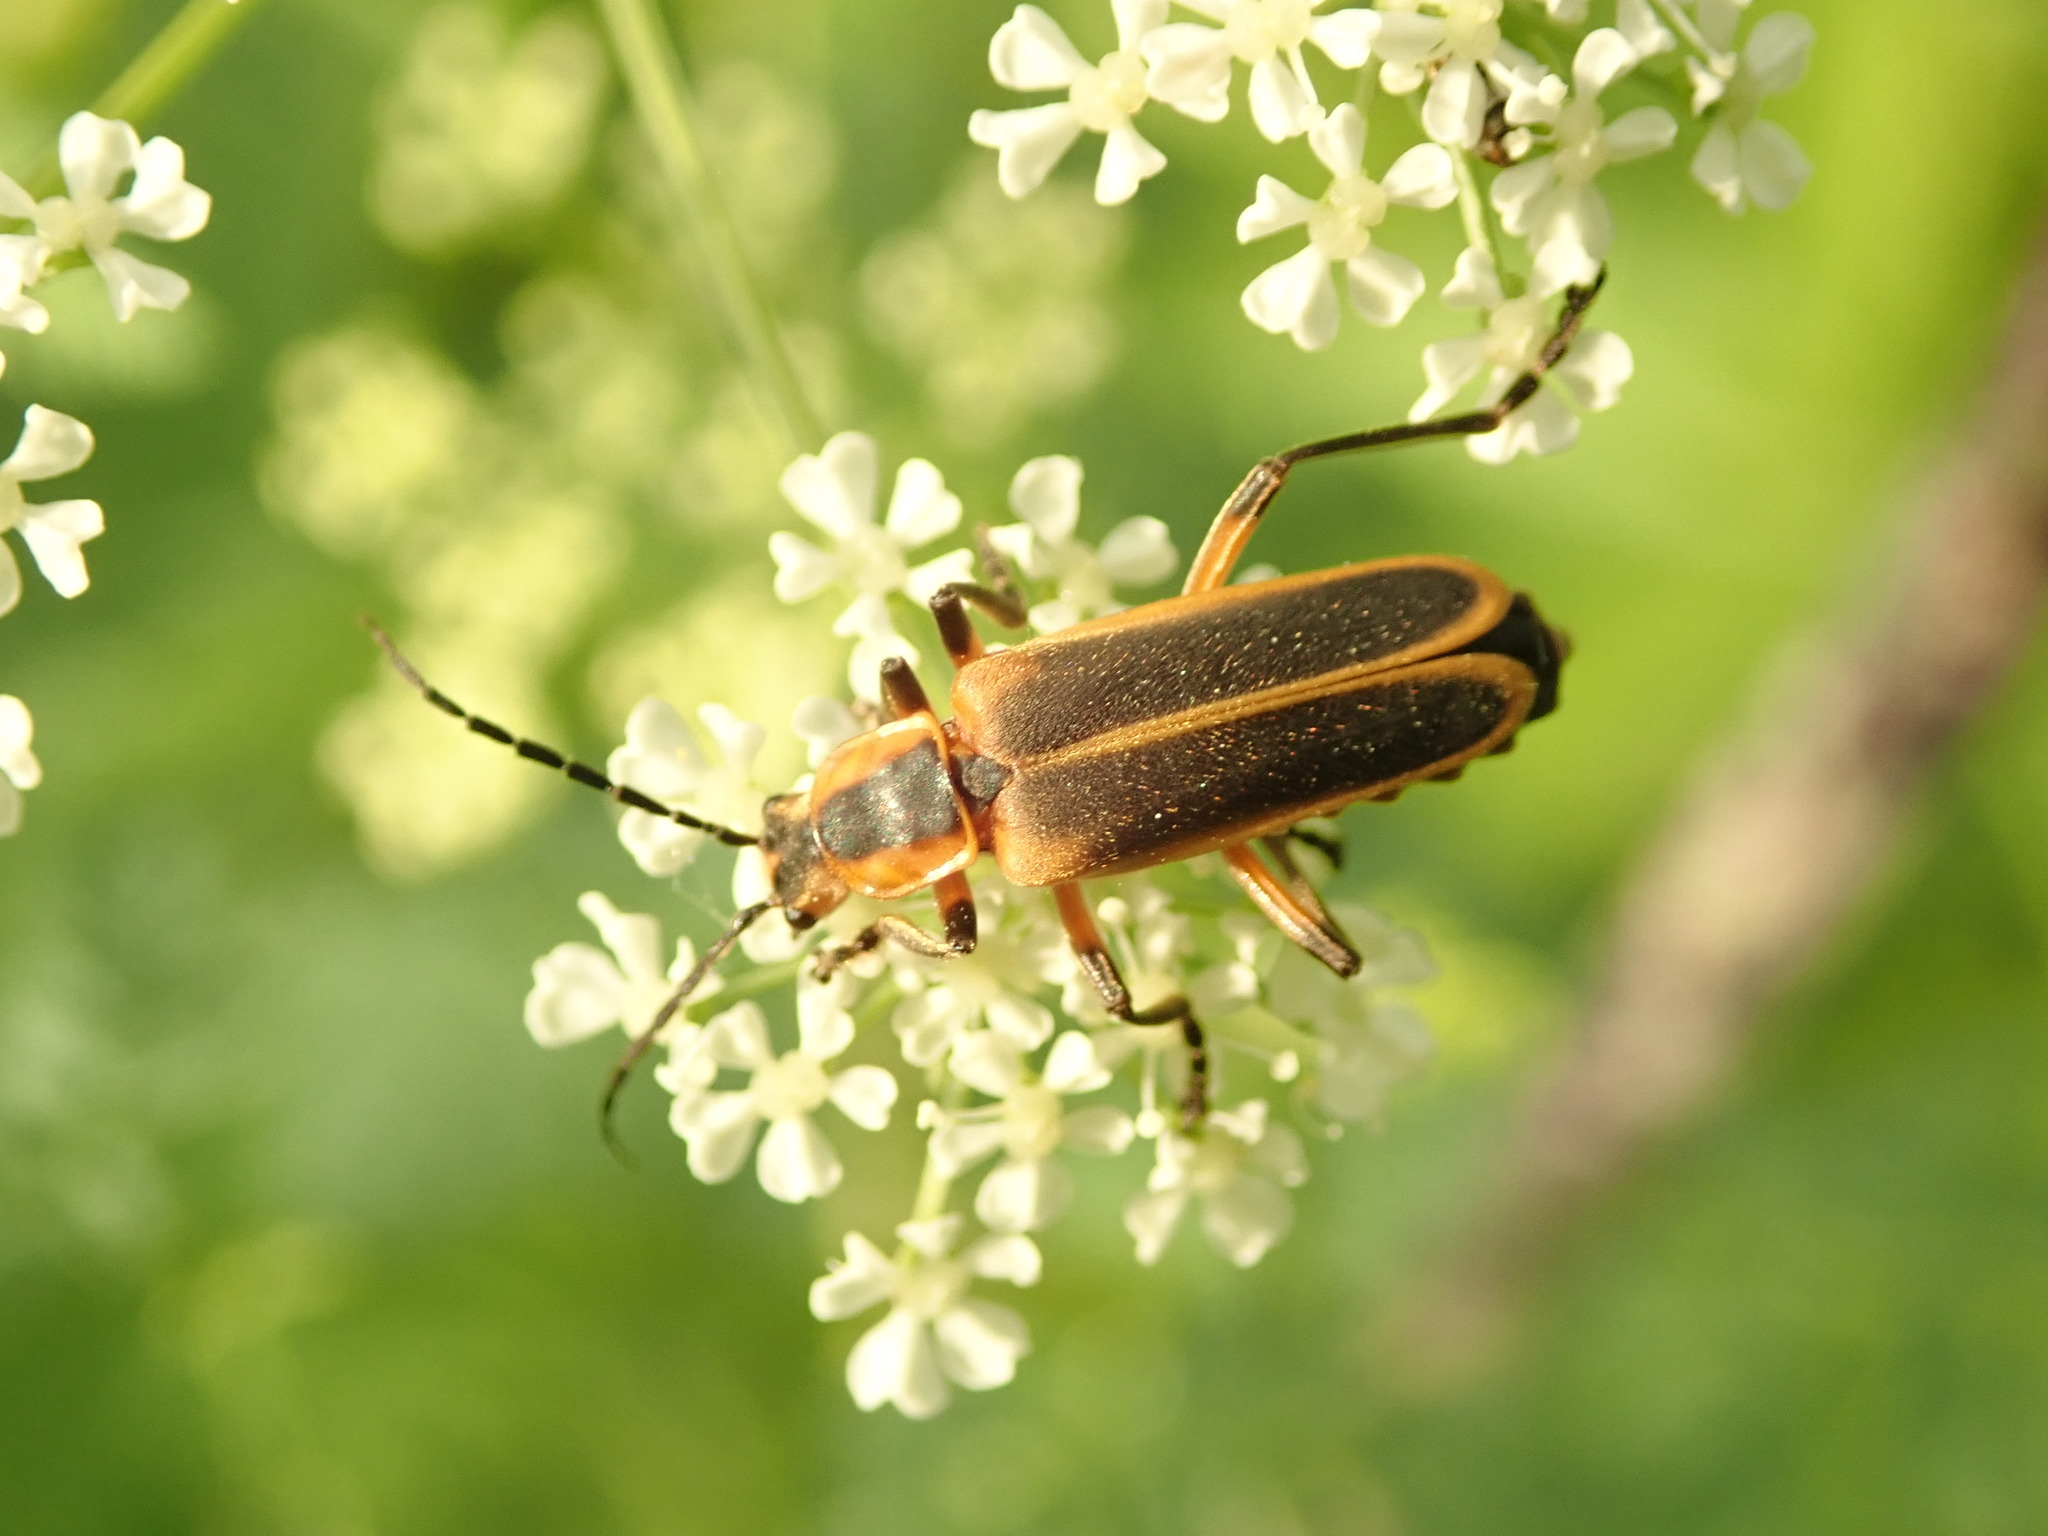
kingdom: Animalia
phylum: Arthropoda
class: Insecta
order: Coleoptera
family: Cantharidae
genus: Chauliognathus
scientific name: Chauliognathus marginatus
